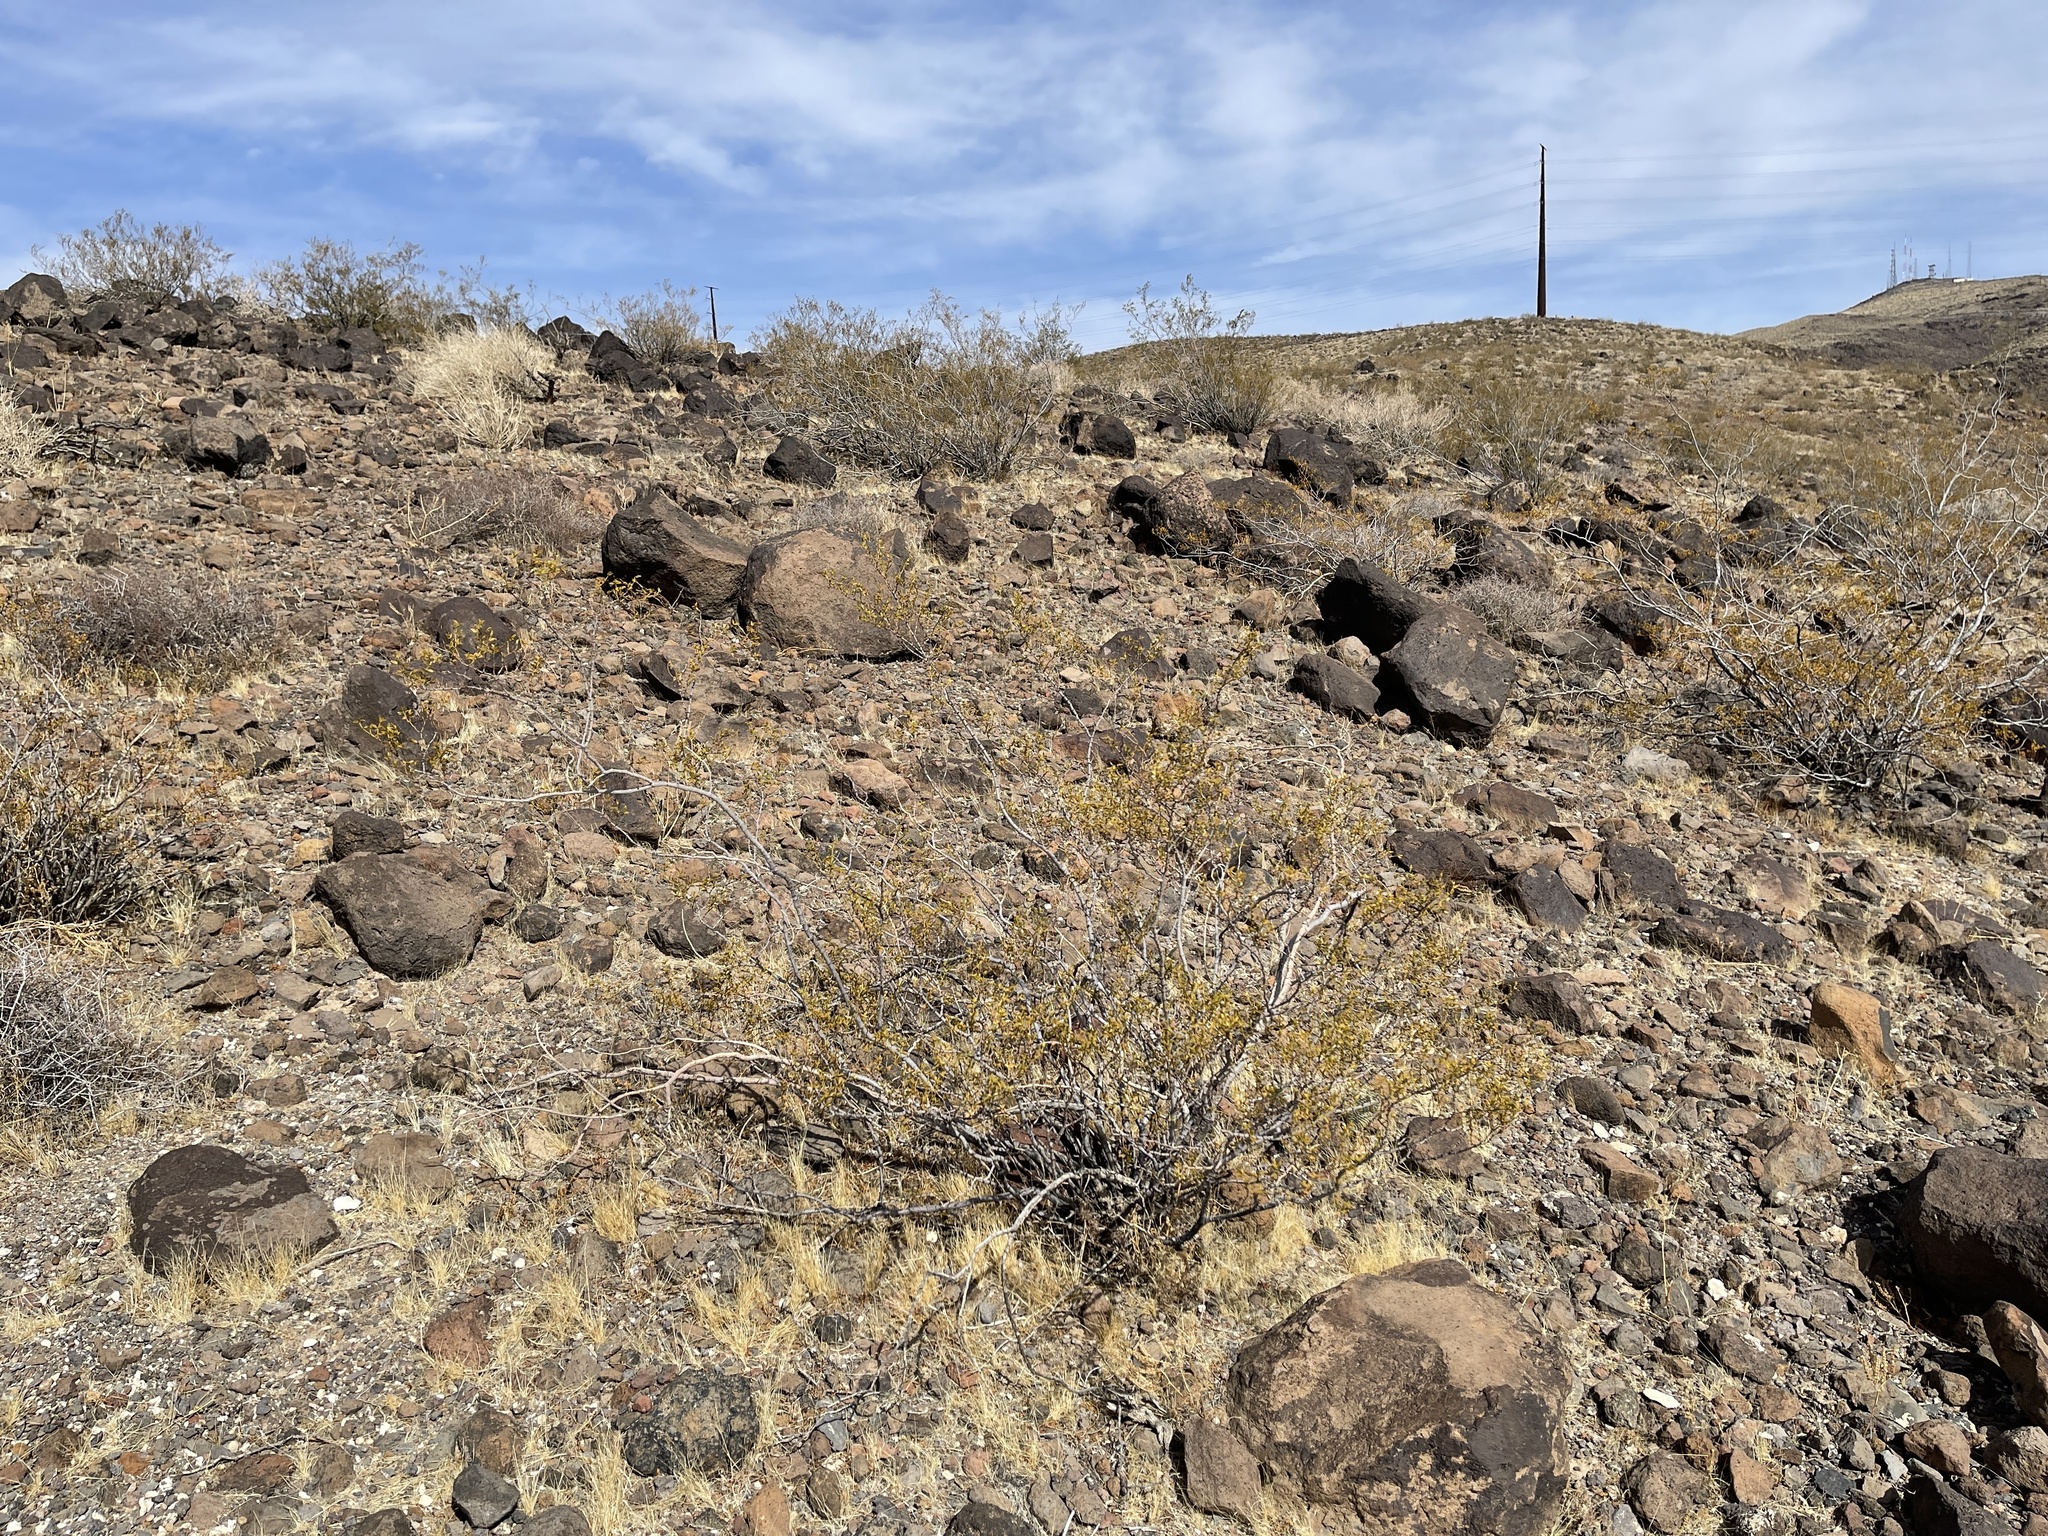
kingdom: Plantae
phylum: Tracheophyta
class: Magnoliopsida
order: Zygophyllales
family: Zygophyllaceae
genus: Larrea
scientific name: Larrea tridentata
